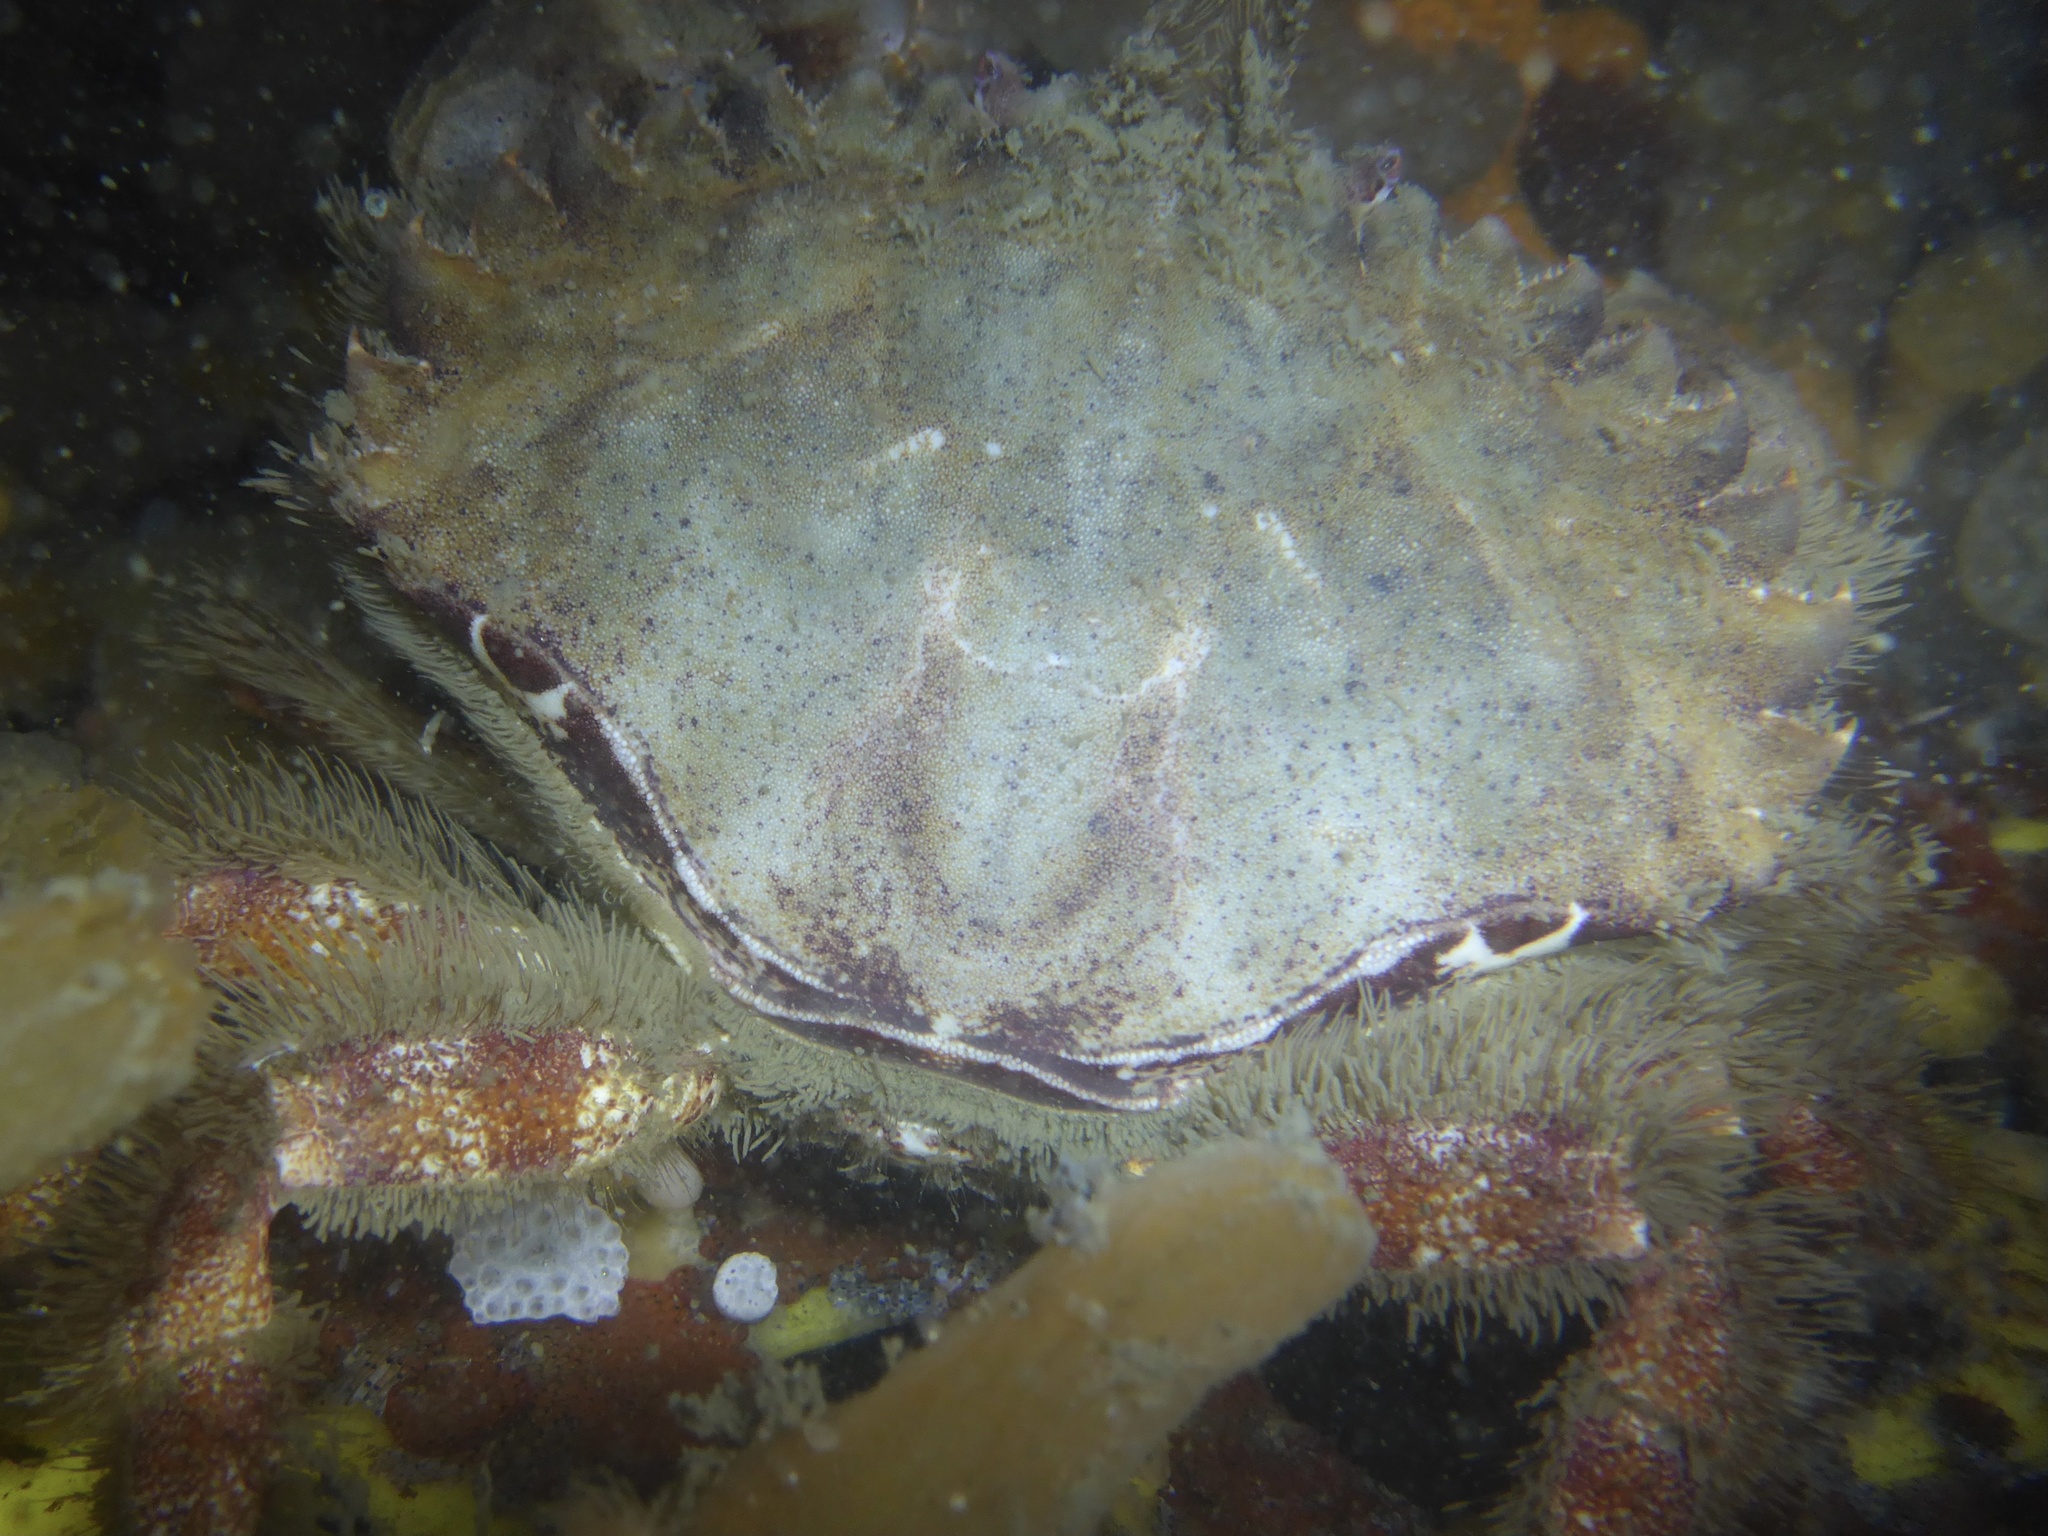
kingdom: Animalia
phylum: Arthropoda
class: Malacostraca
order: Decapoda
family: Cancridae
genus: Romaleon
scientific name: Romaleon antennarium
